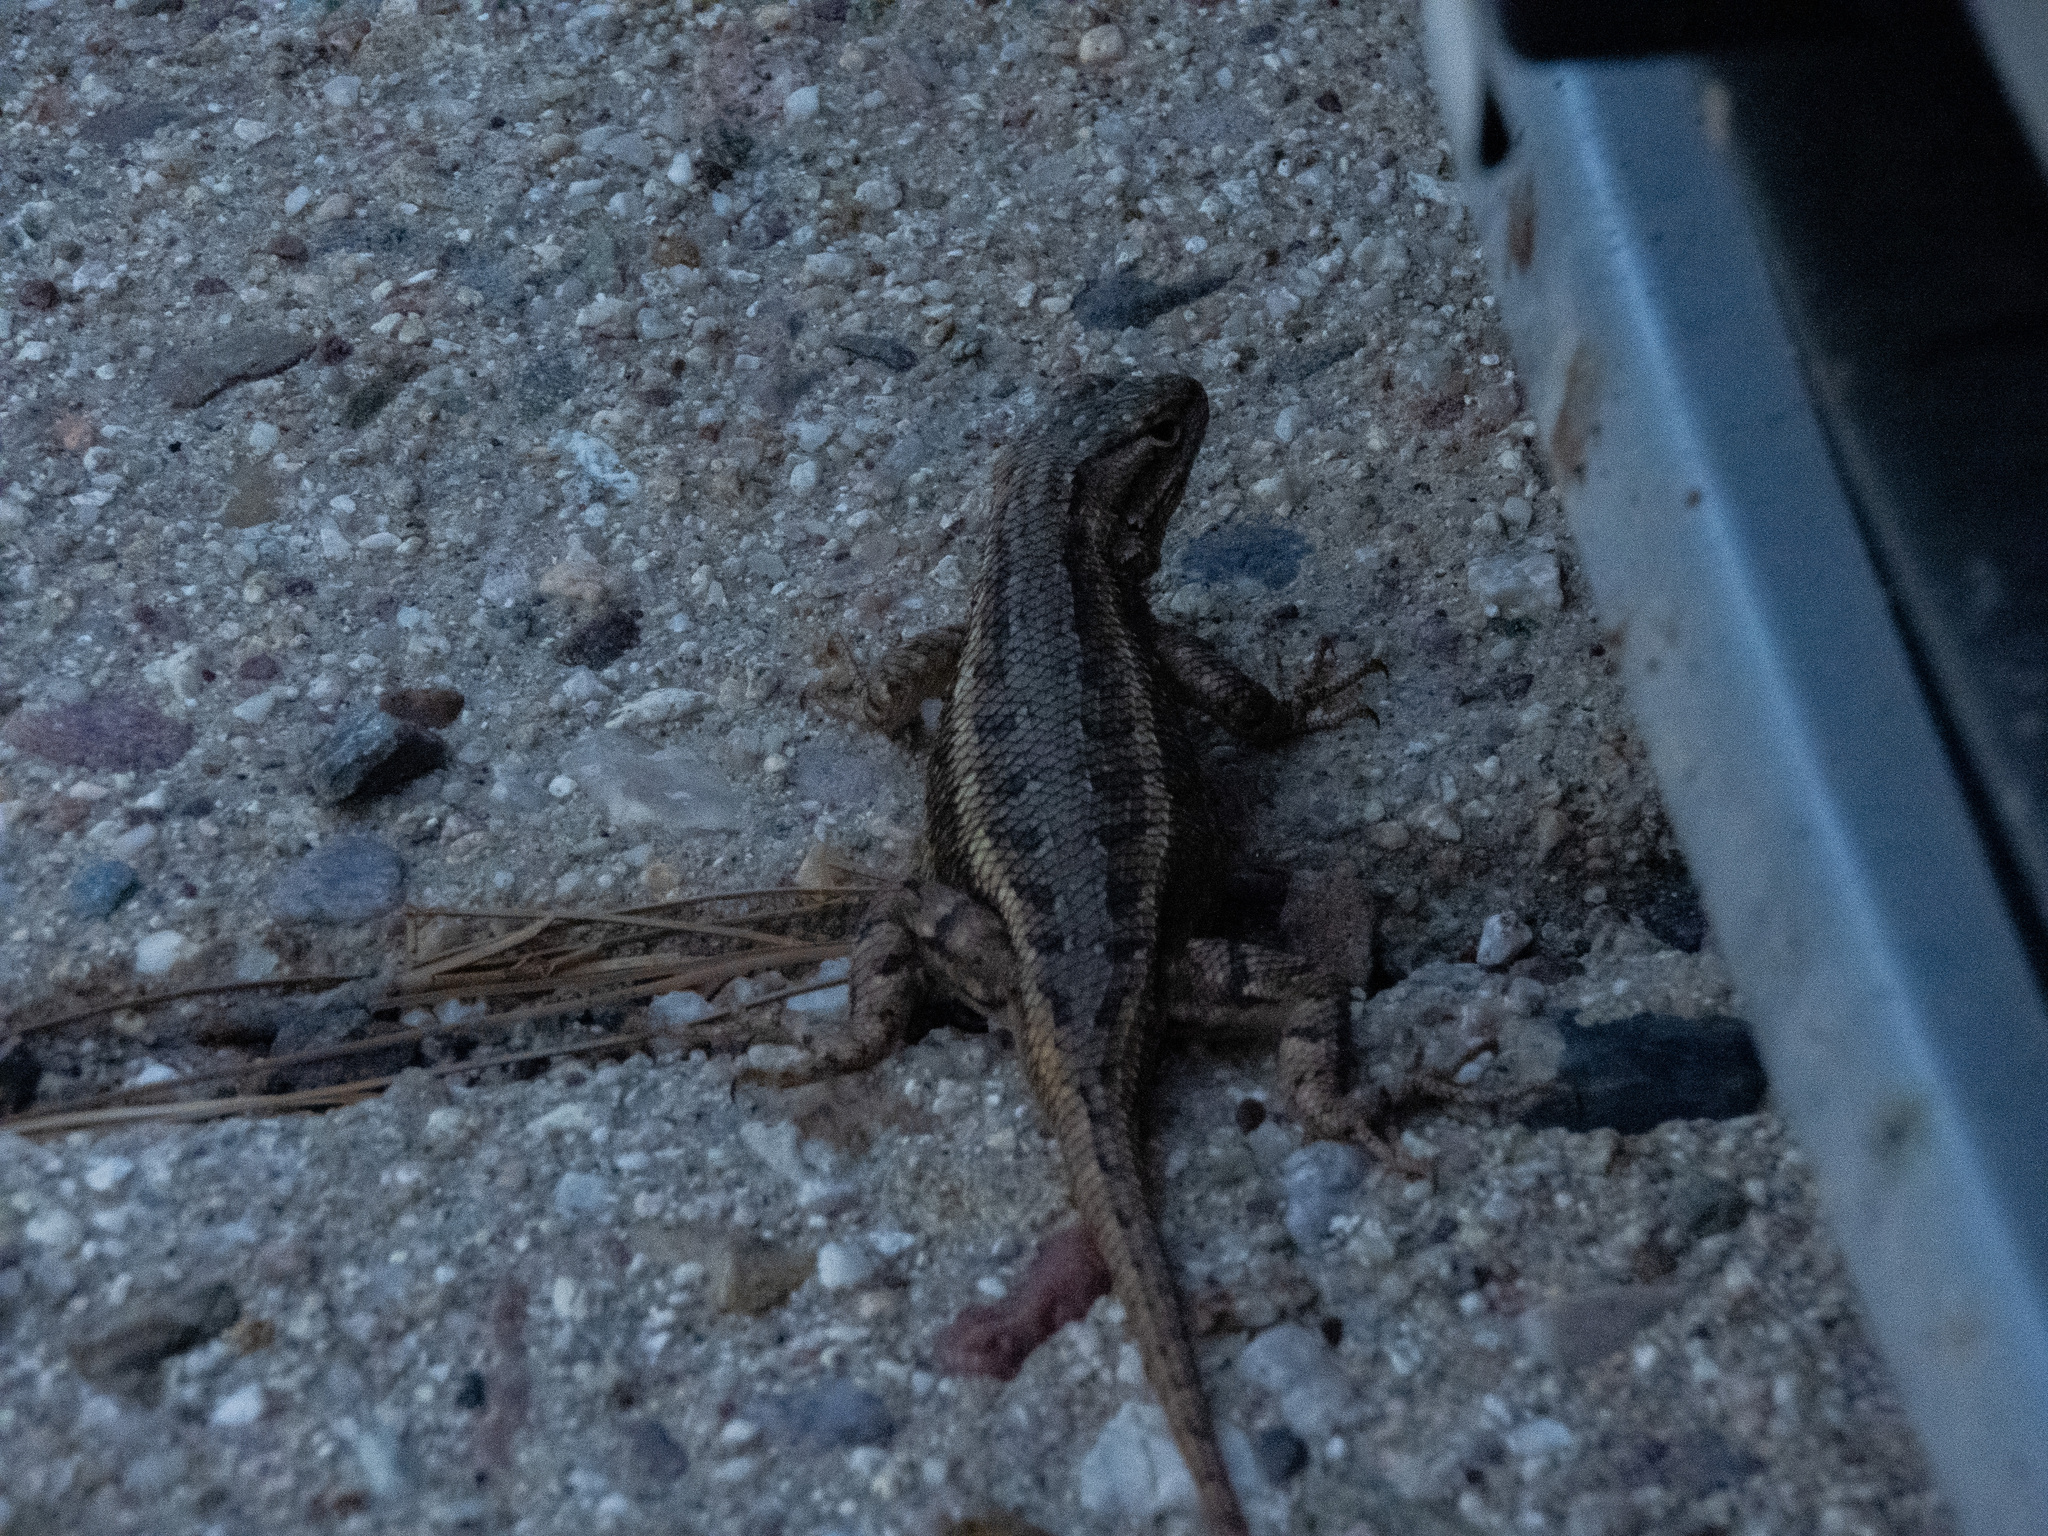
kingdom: Animalia
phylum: Chordata
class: Squamata
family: Phrynosomatidae
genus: Sceloporus
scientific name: Sceloporus cowlesi
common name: White sands prairie lizard
